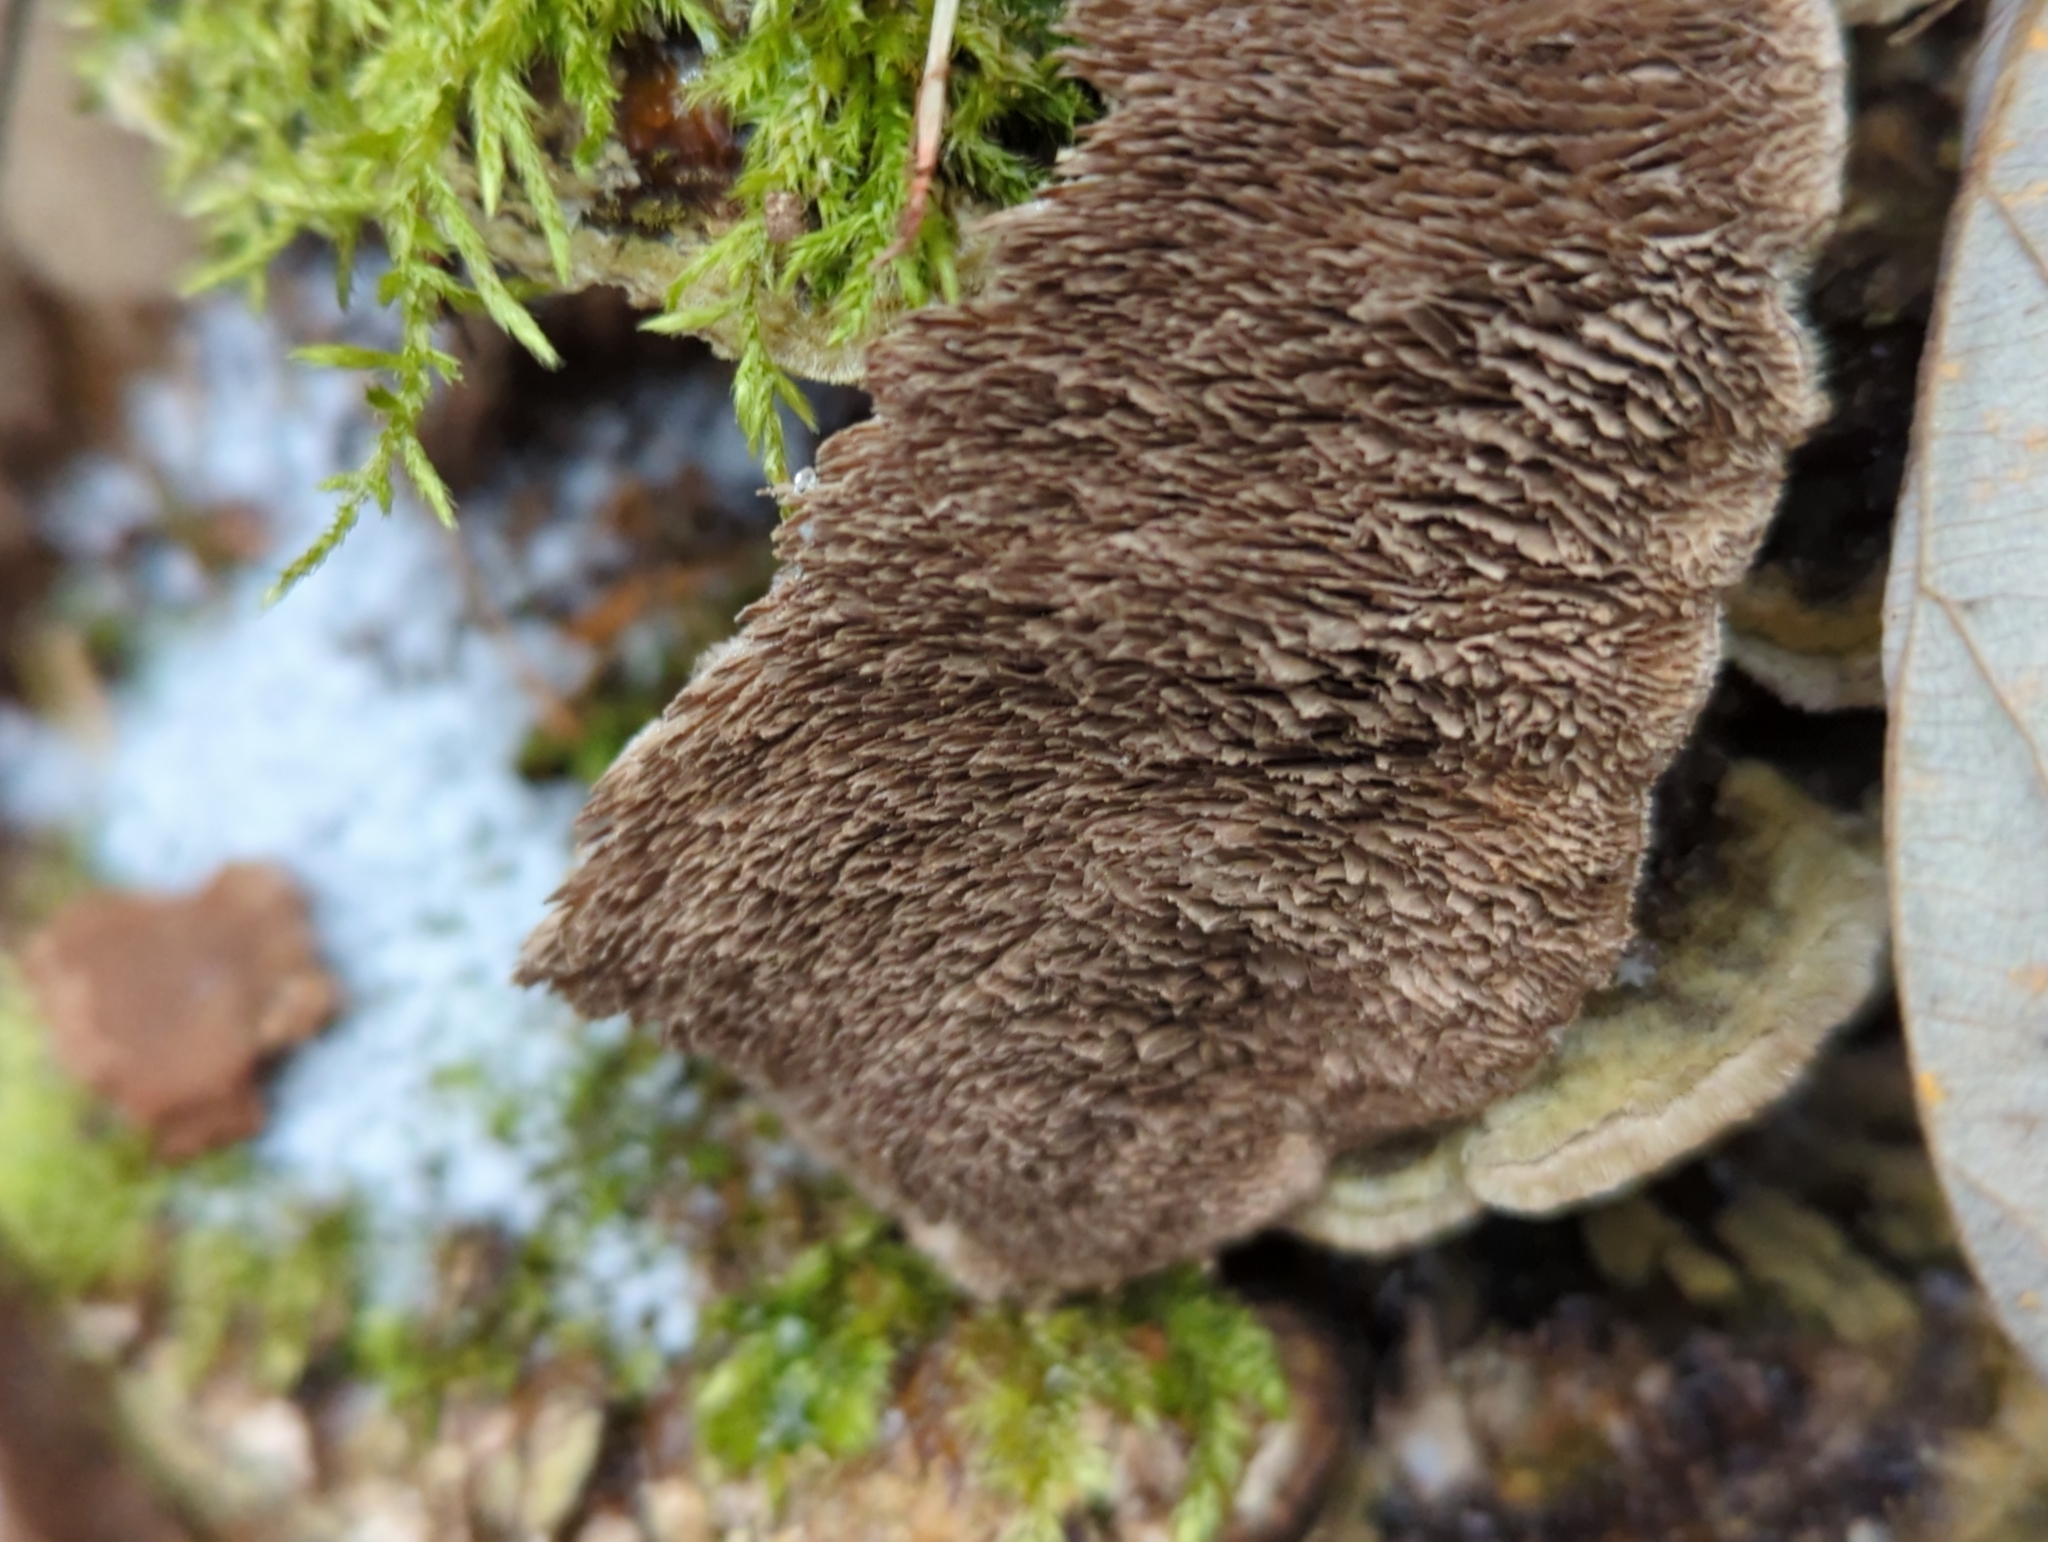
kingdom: Fungi
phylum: Basidiomycota
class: Agaricomycetes
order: Polyporales
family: Cerrenaceae
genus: Cerrena
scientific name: Cerrena unicolor
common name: Mossy maze polypore
